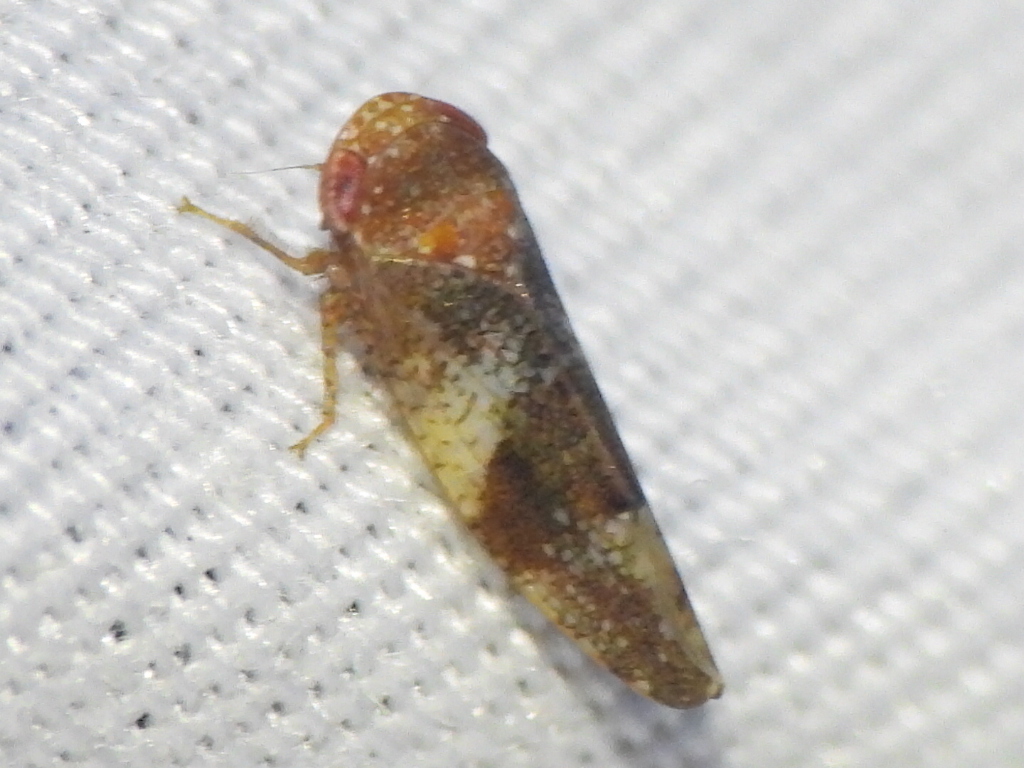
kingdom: Animalia
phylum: Arthropoda
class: Insecta
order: Hemiptera
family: Cicadellidae
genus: Norvellina
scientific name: Norvellina helenae
